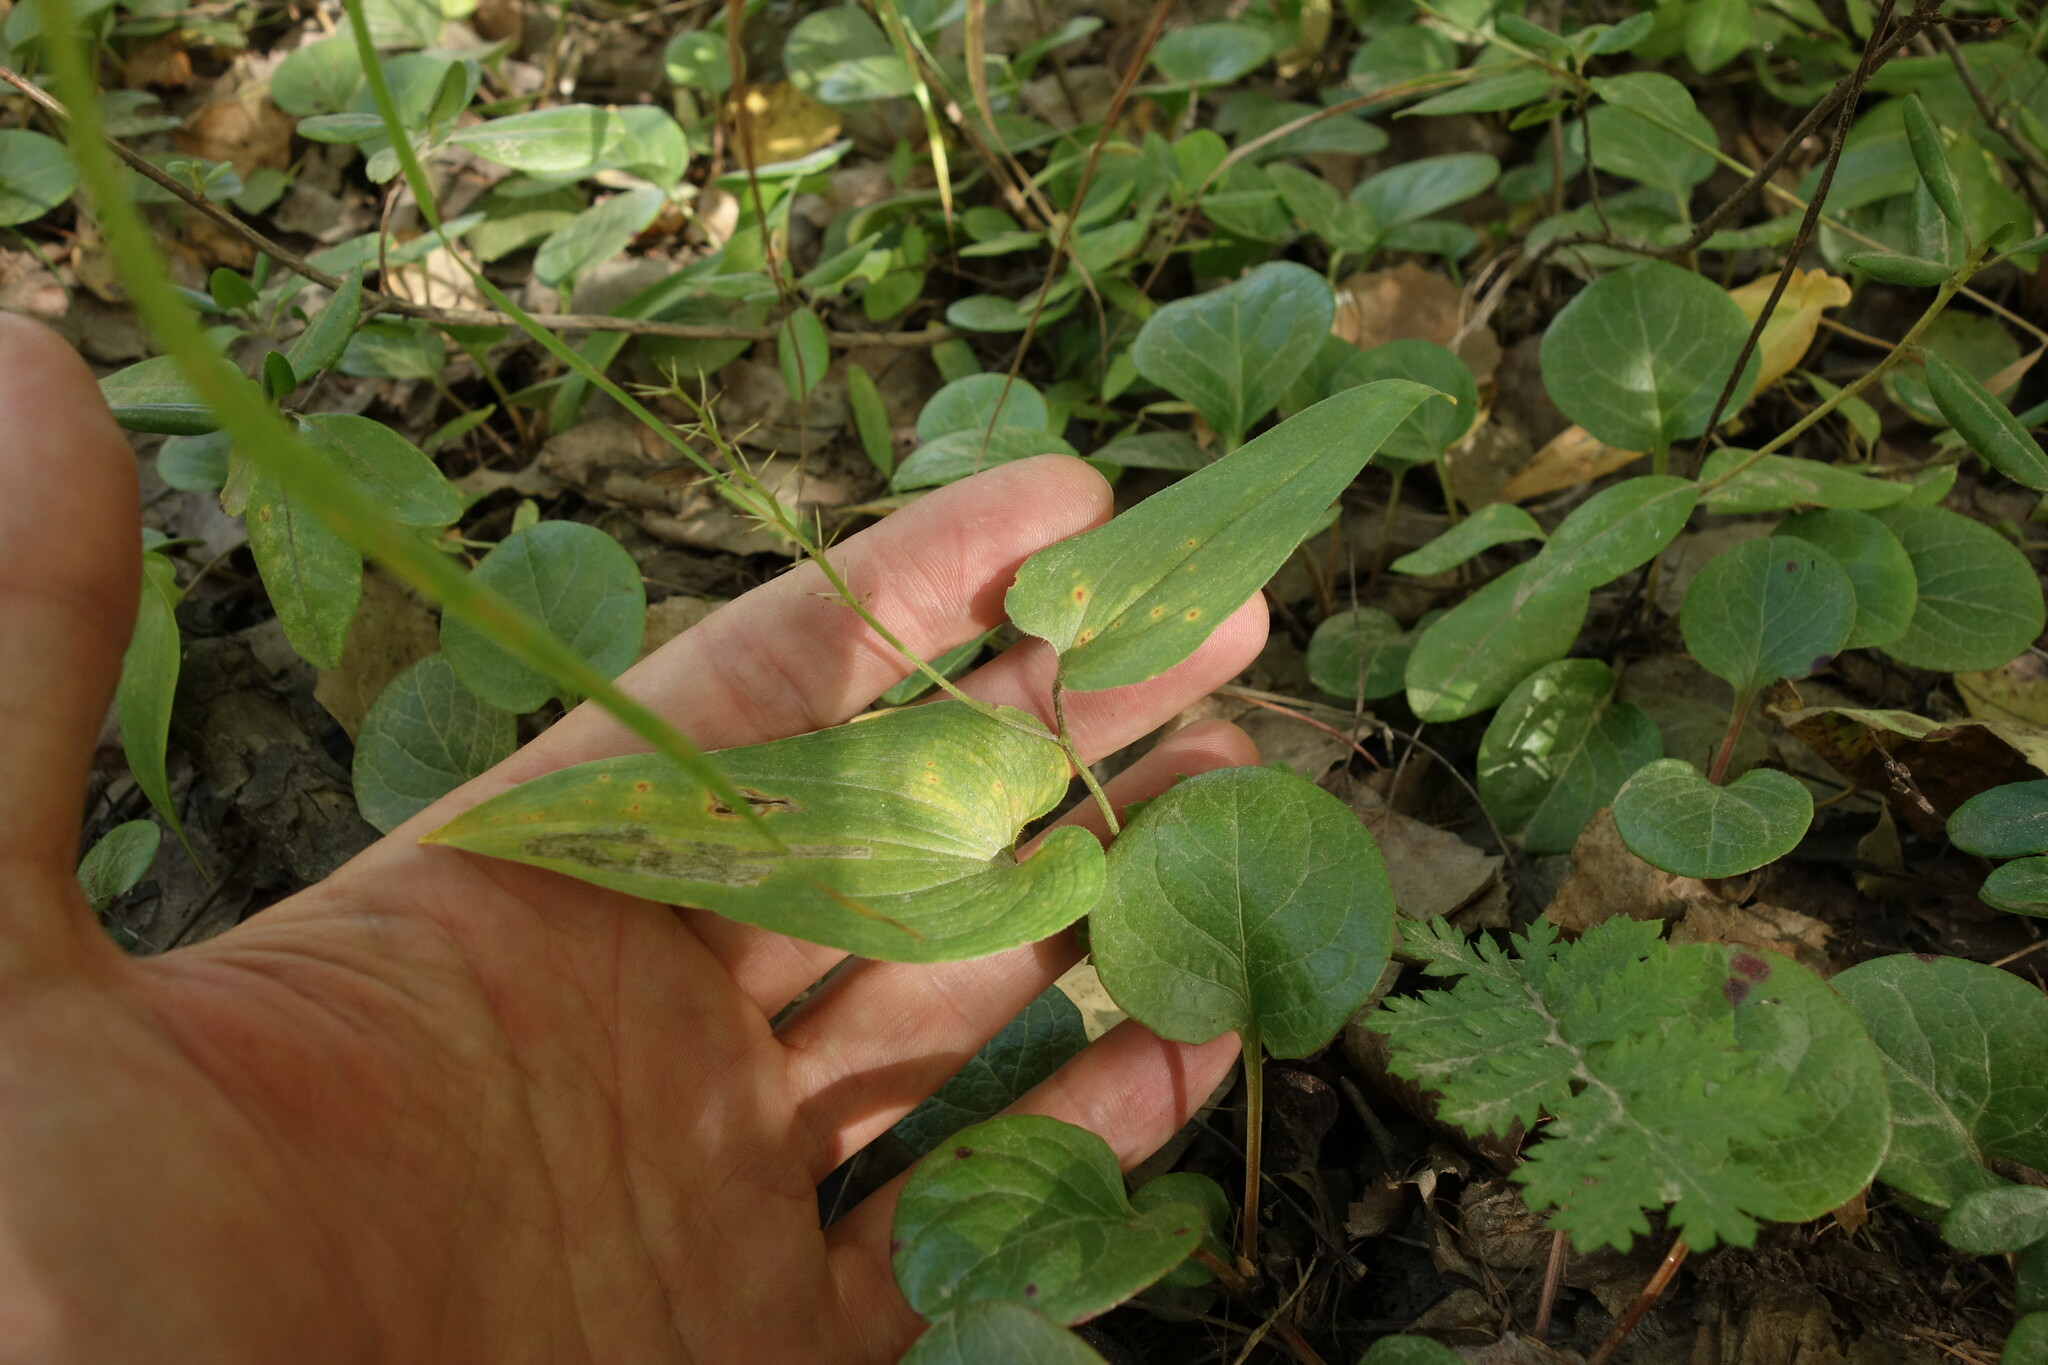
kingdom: Plantae
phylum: Tracheophyta
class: Liliopsida
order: Asparagales
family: Asparagaceae
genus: Maianthemum
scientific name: Maianthemum bifolium
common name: May lily
